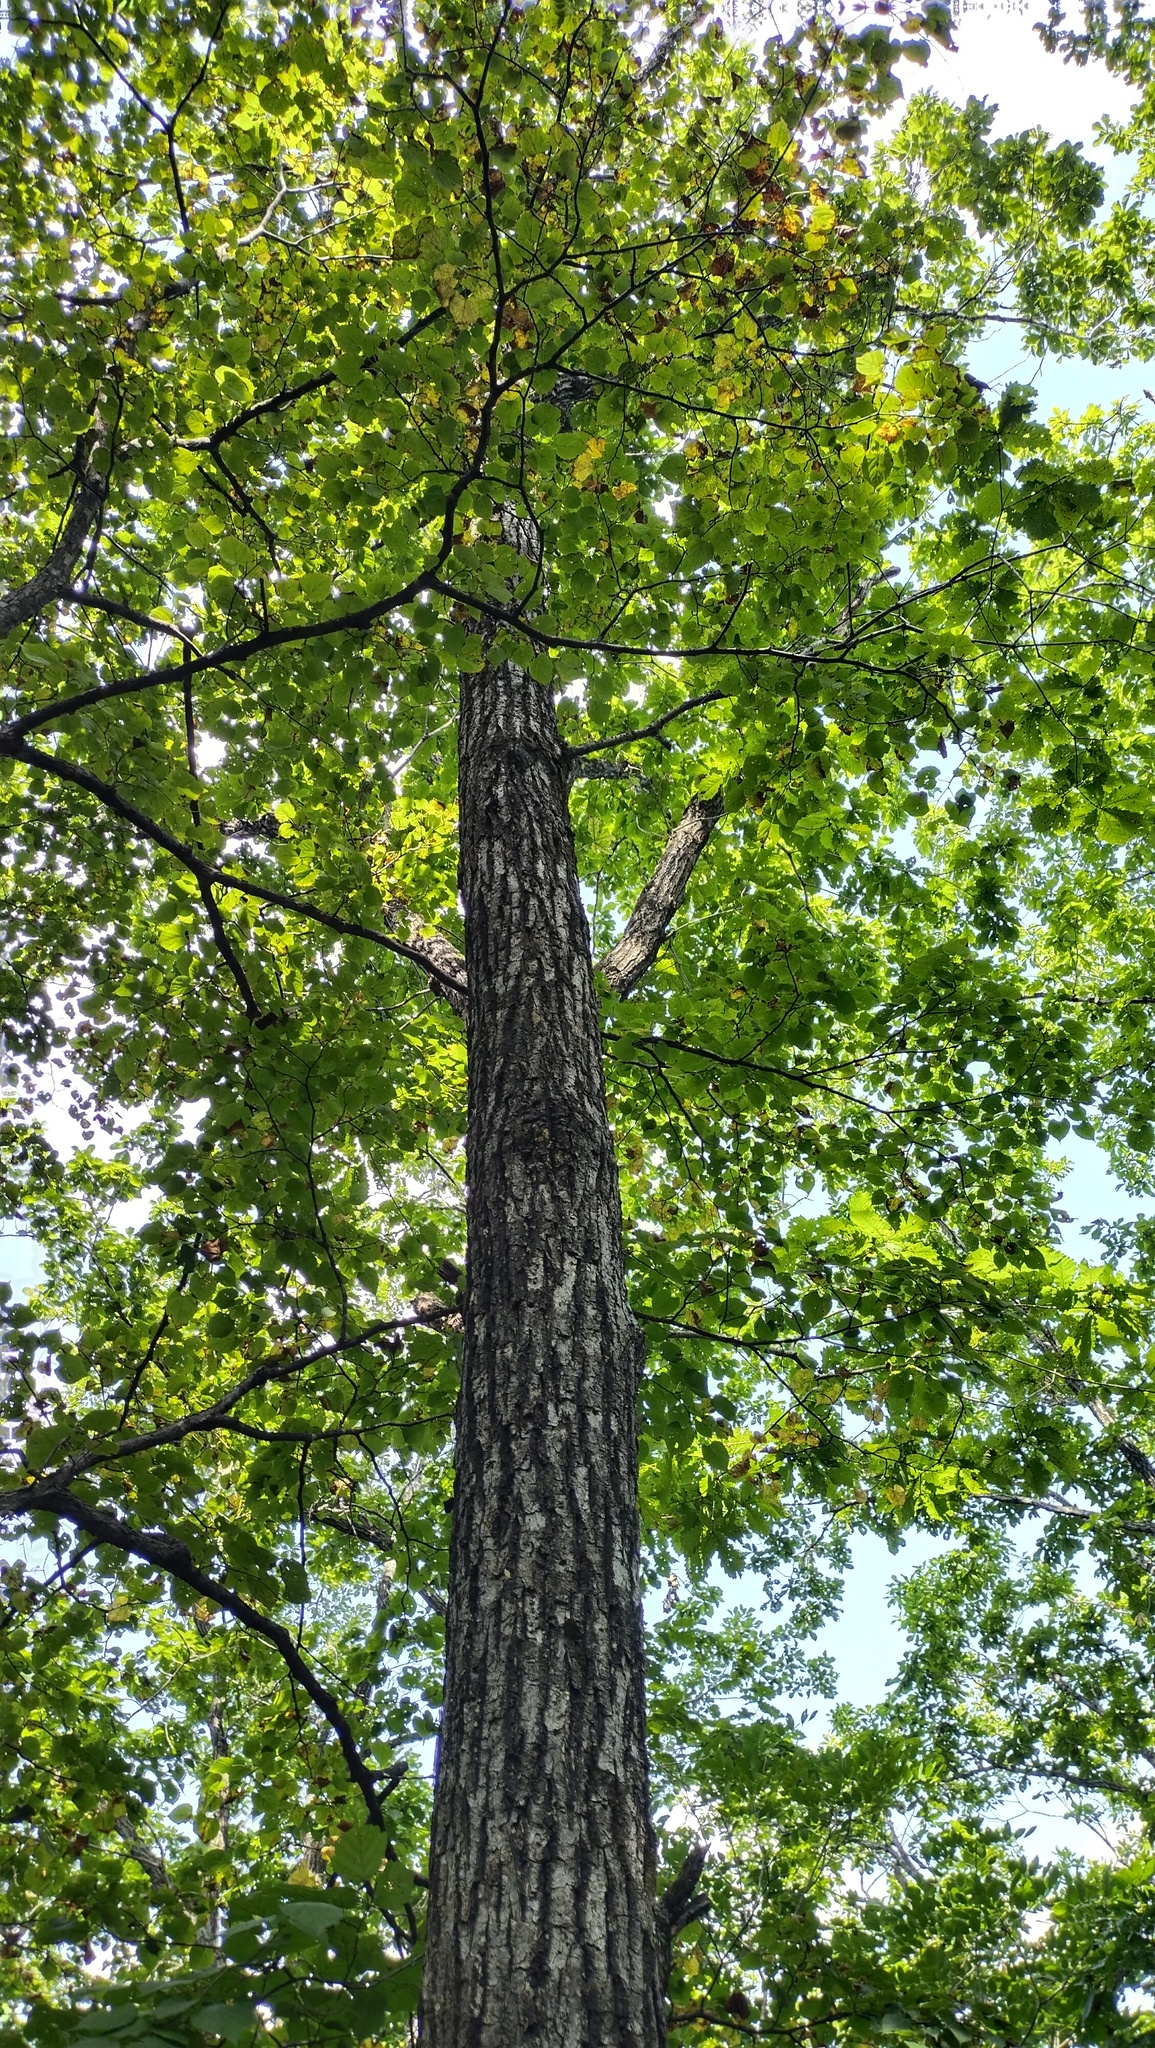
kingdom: Plantae
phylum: Tracheophyta
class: Magnoliopsida
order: Malvales
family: Malvaceae
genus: Tilia
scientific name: Tilia amurensis
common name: Amur lime
